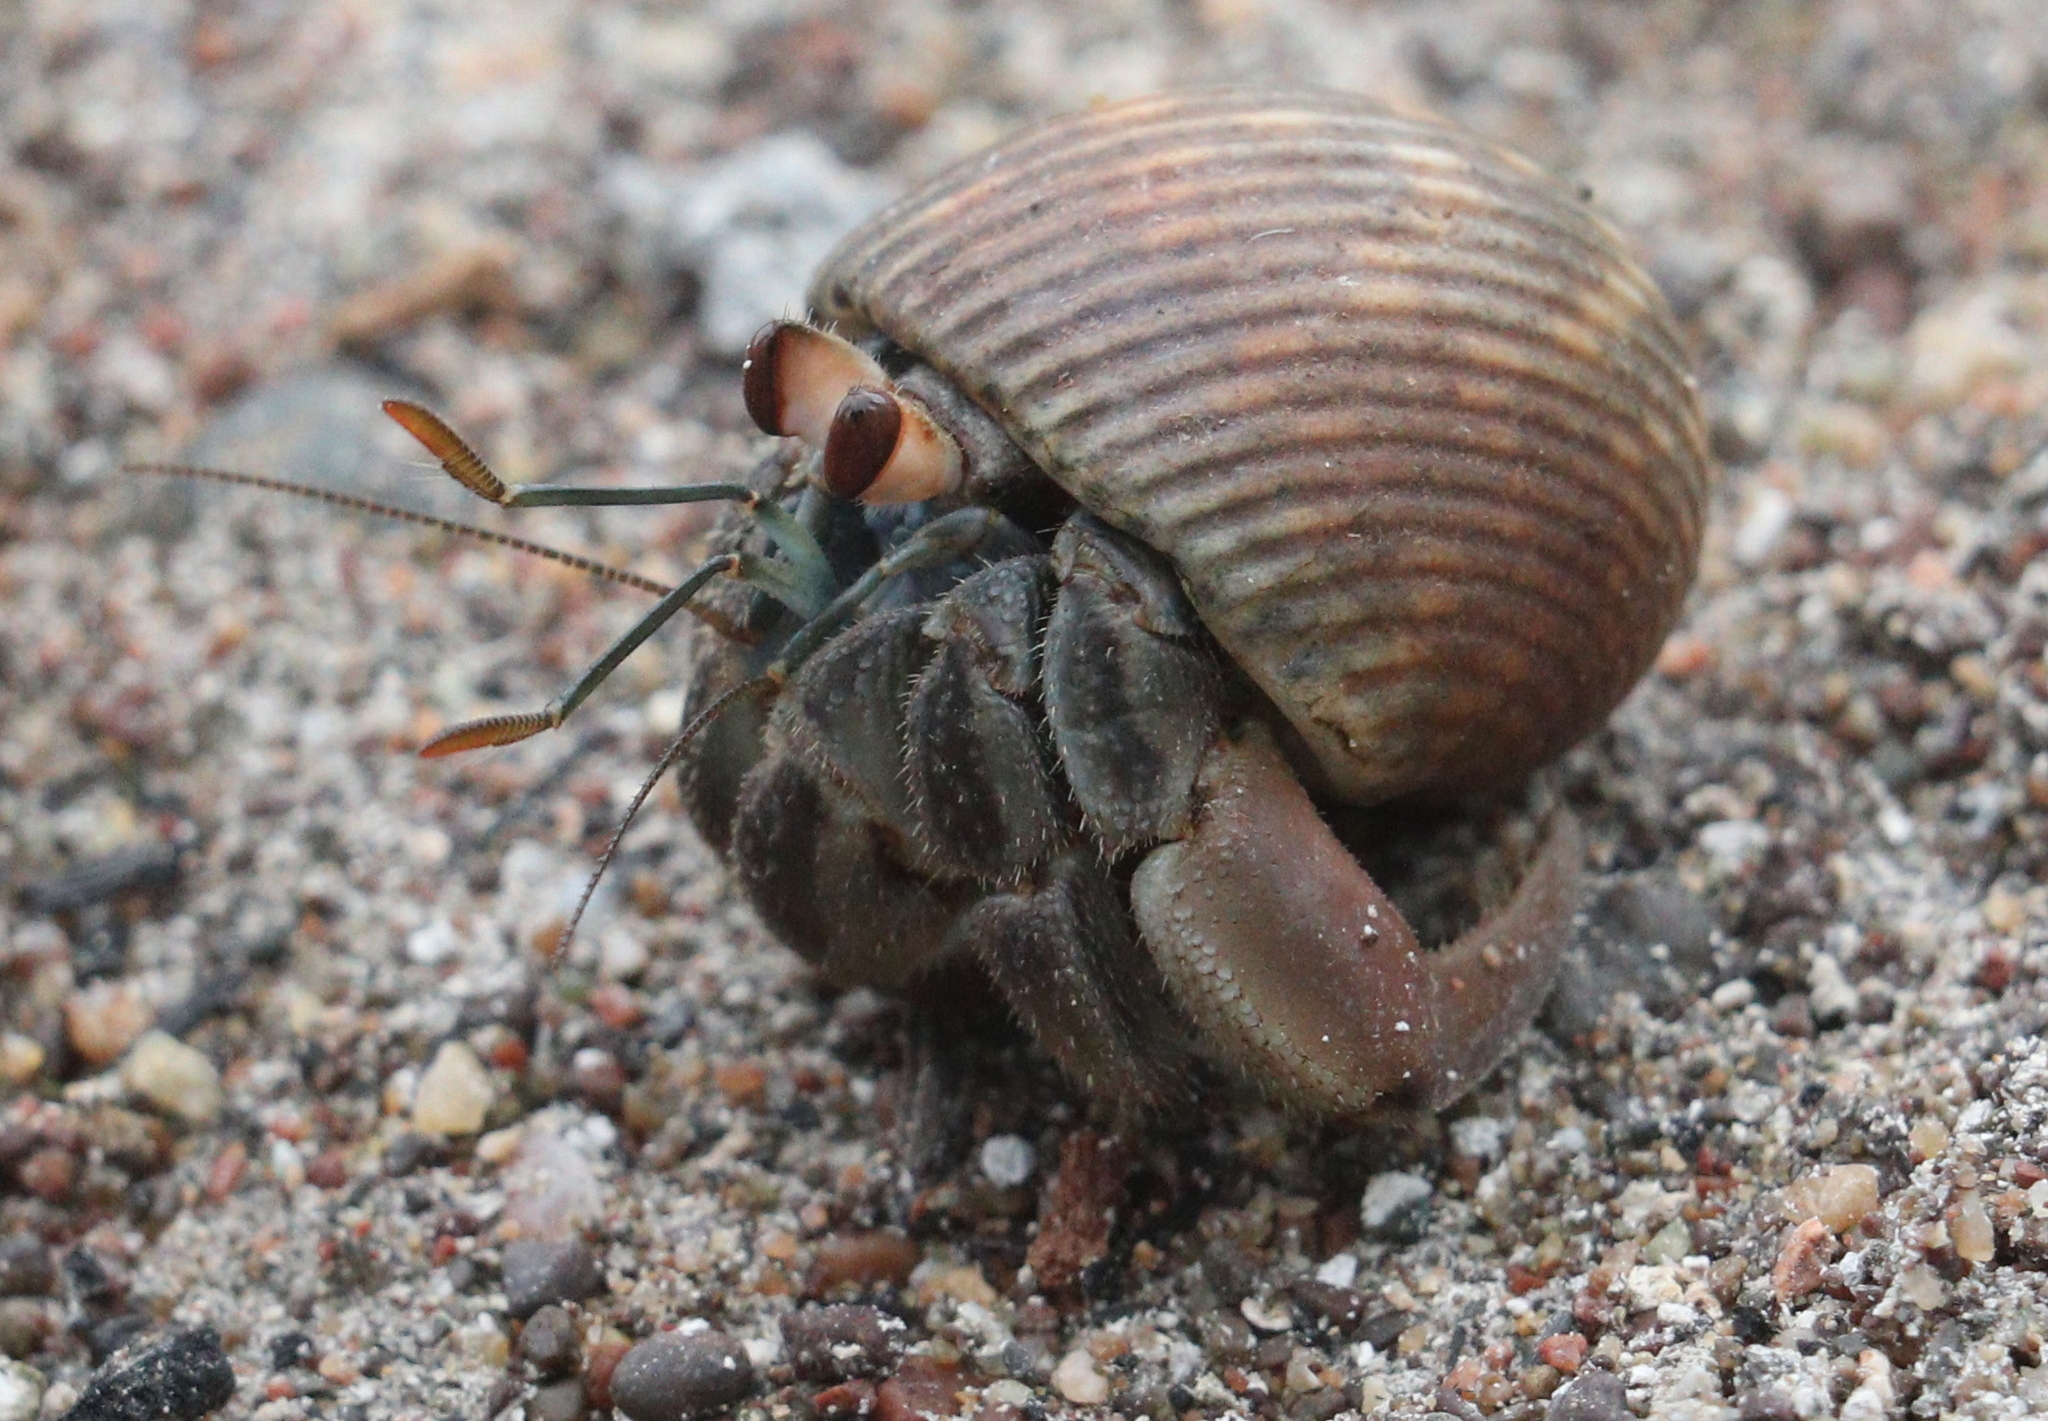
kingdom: Animalia
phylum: Arthropoda
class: Malacostraca
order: Decapoda
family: Coenobitidae
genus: Coenobita
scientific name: Coenobita compressus
